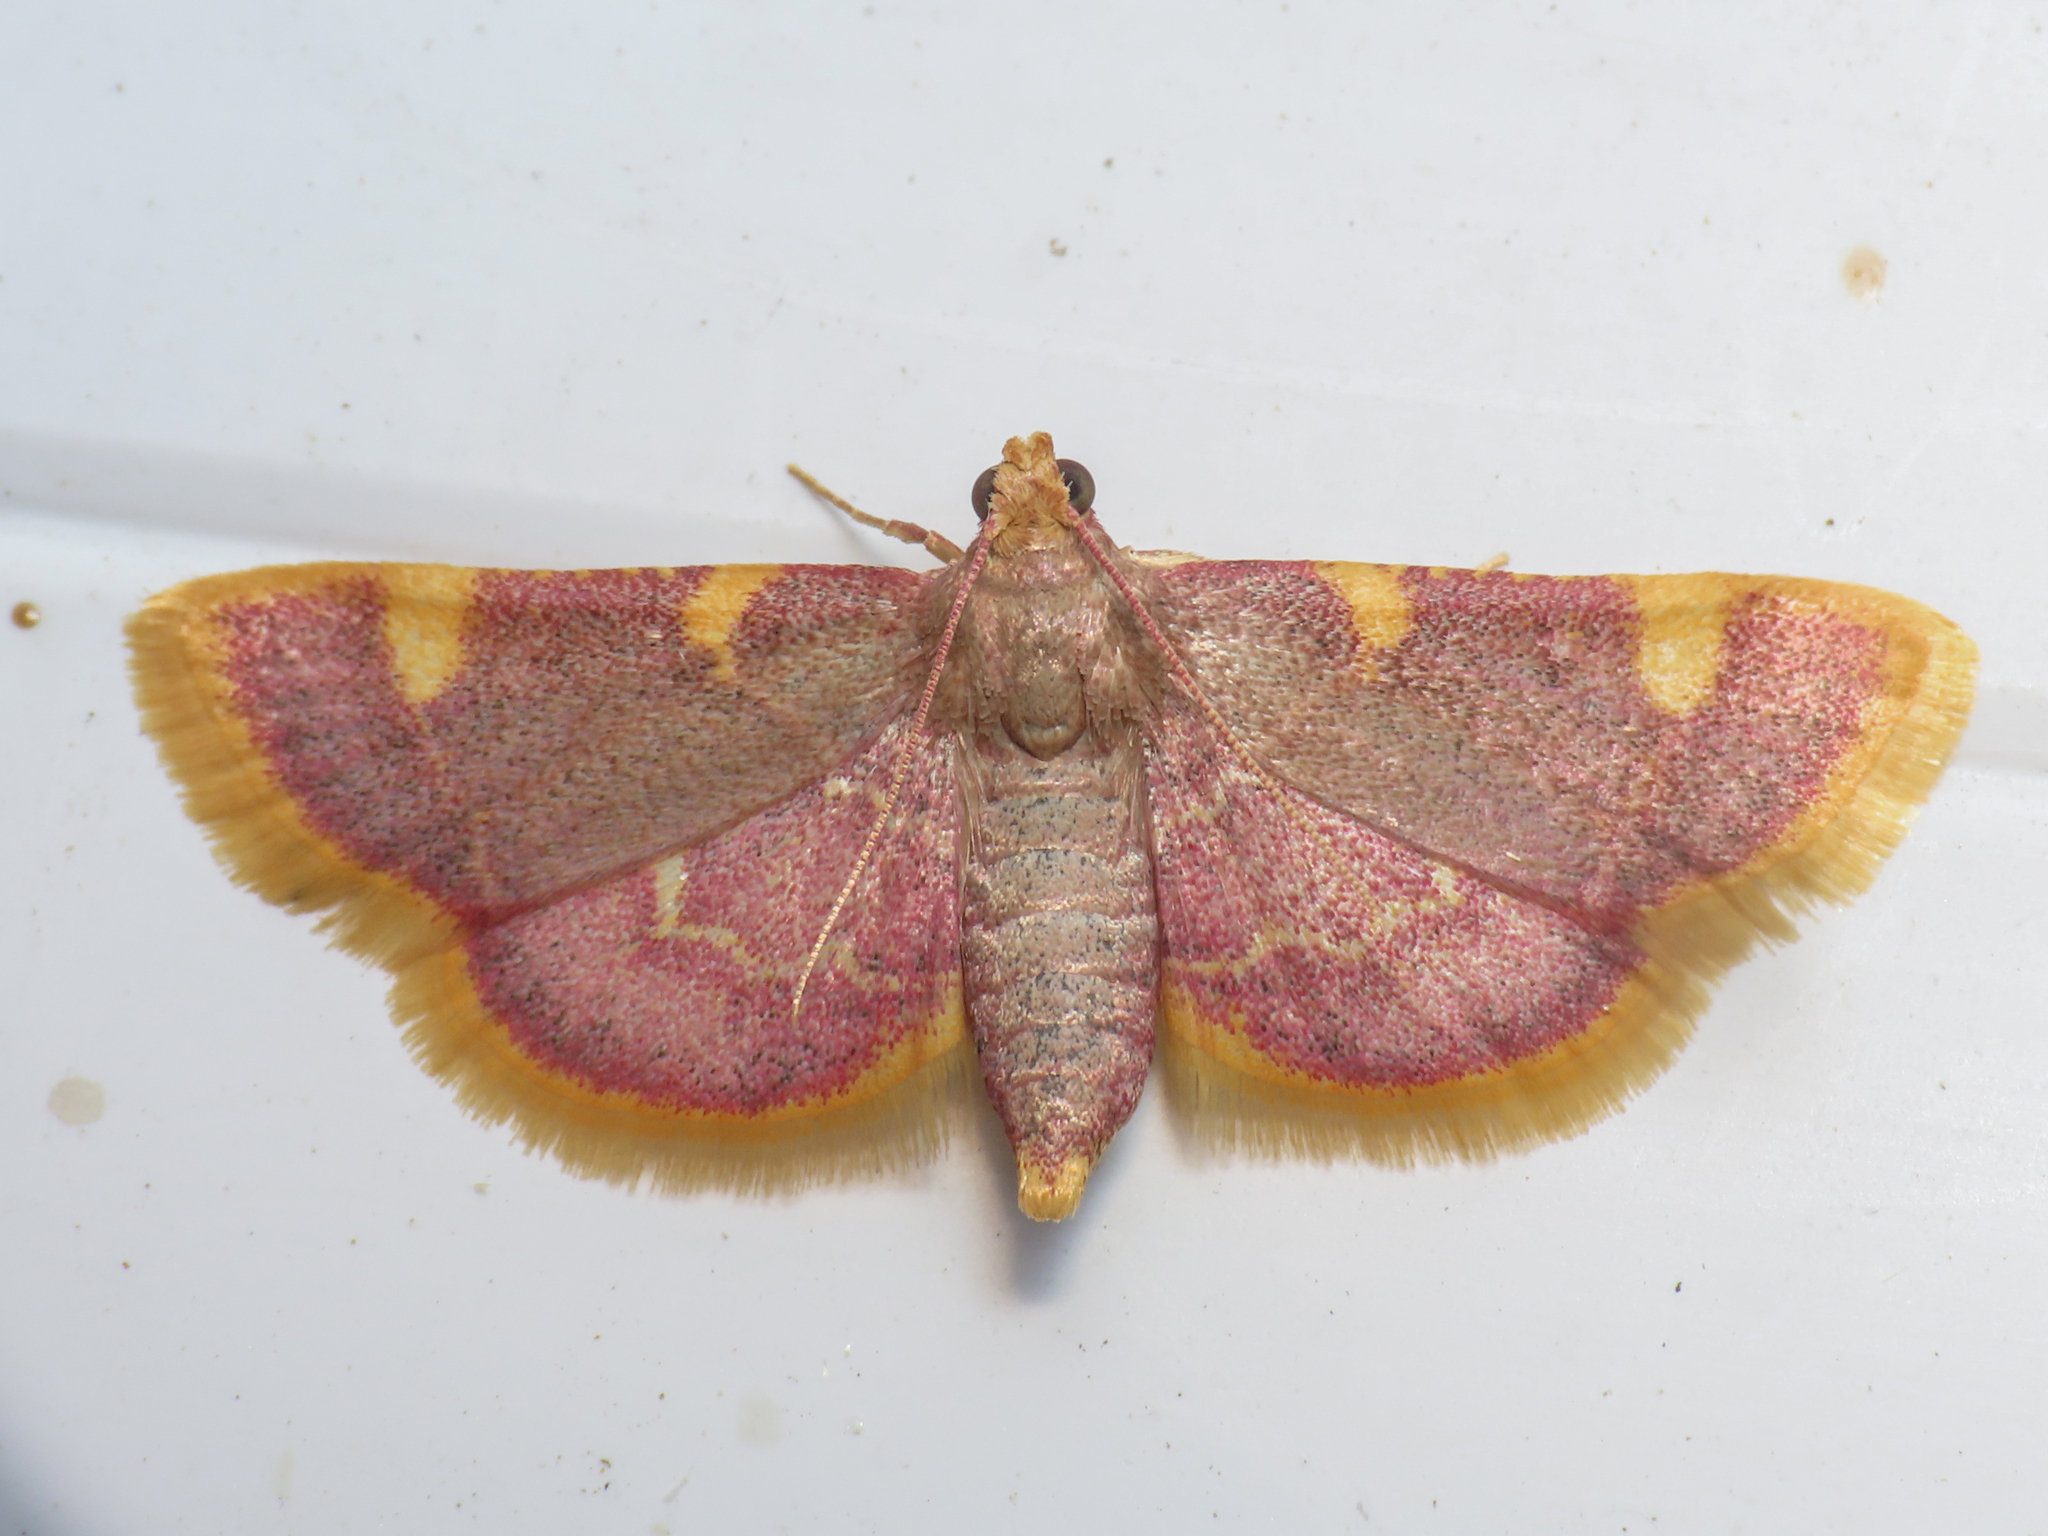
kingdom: Animalia
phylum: Arthropoda
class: Insecta
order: Lepidoptera
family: Pyralidae
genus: Hypsopygia
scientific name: Hypsopygia costalis
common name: Gold triangle
